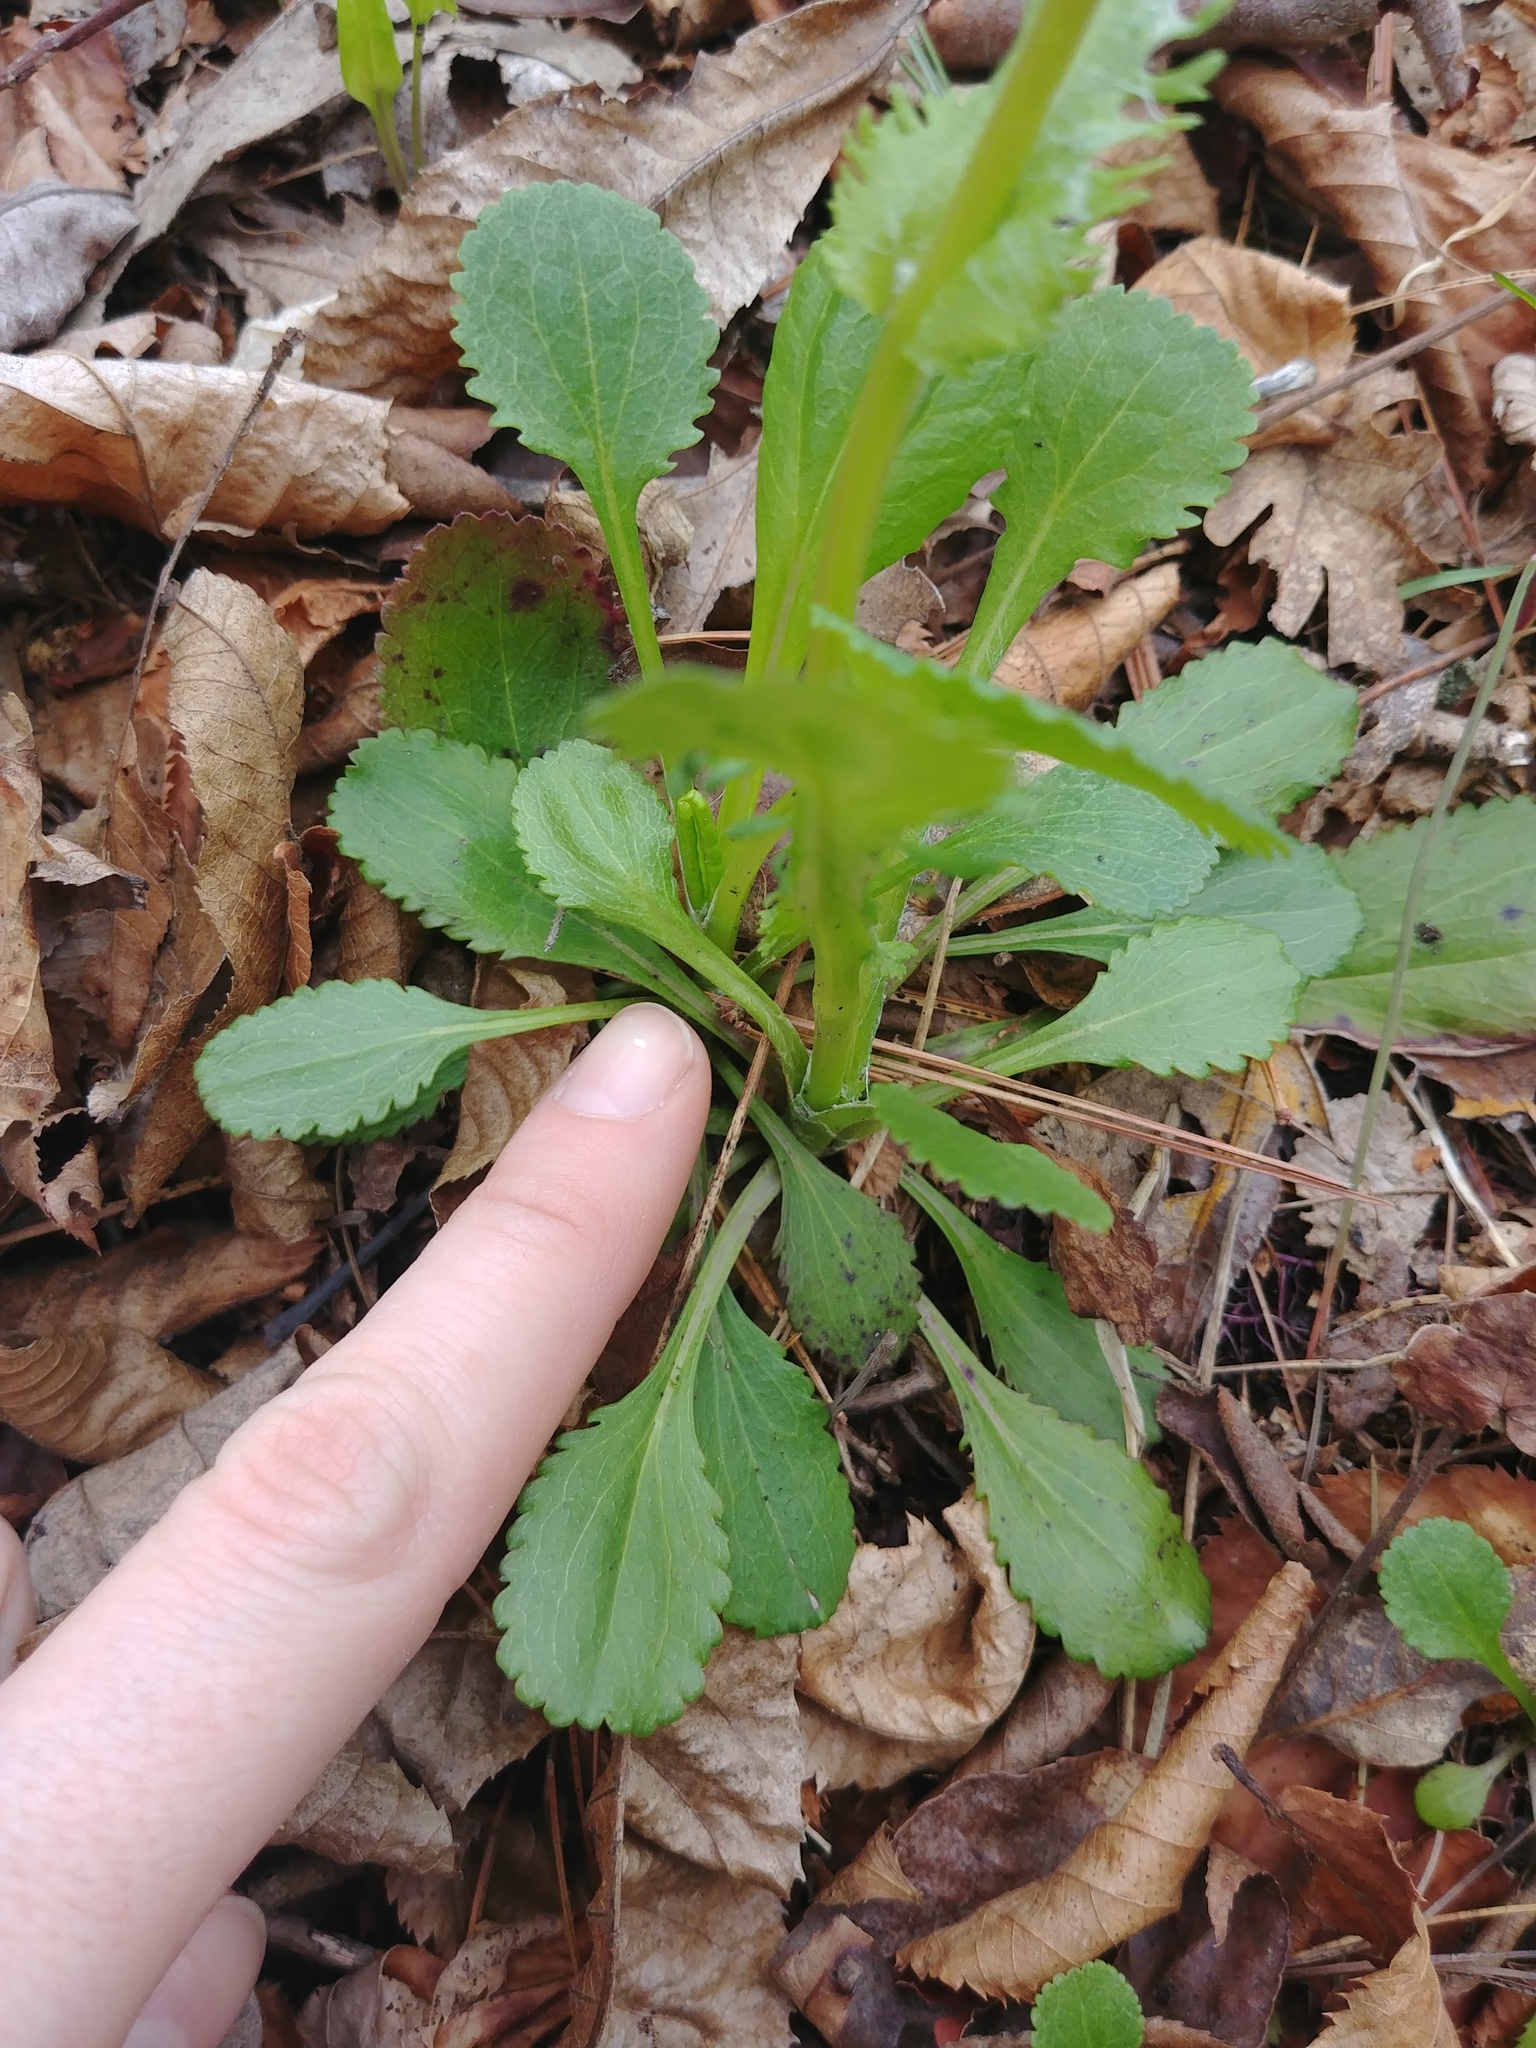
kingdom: Plantae
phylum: Tracheophyta
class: Magnoliopsida
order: Asterales
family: Asteraceae
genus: Packera
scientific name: Packera obovata
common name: Round-leaf ragwort
